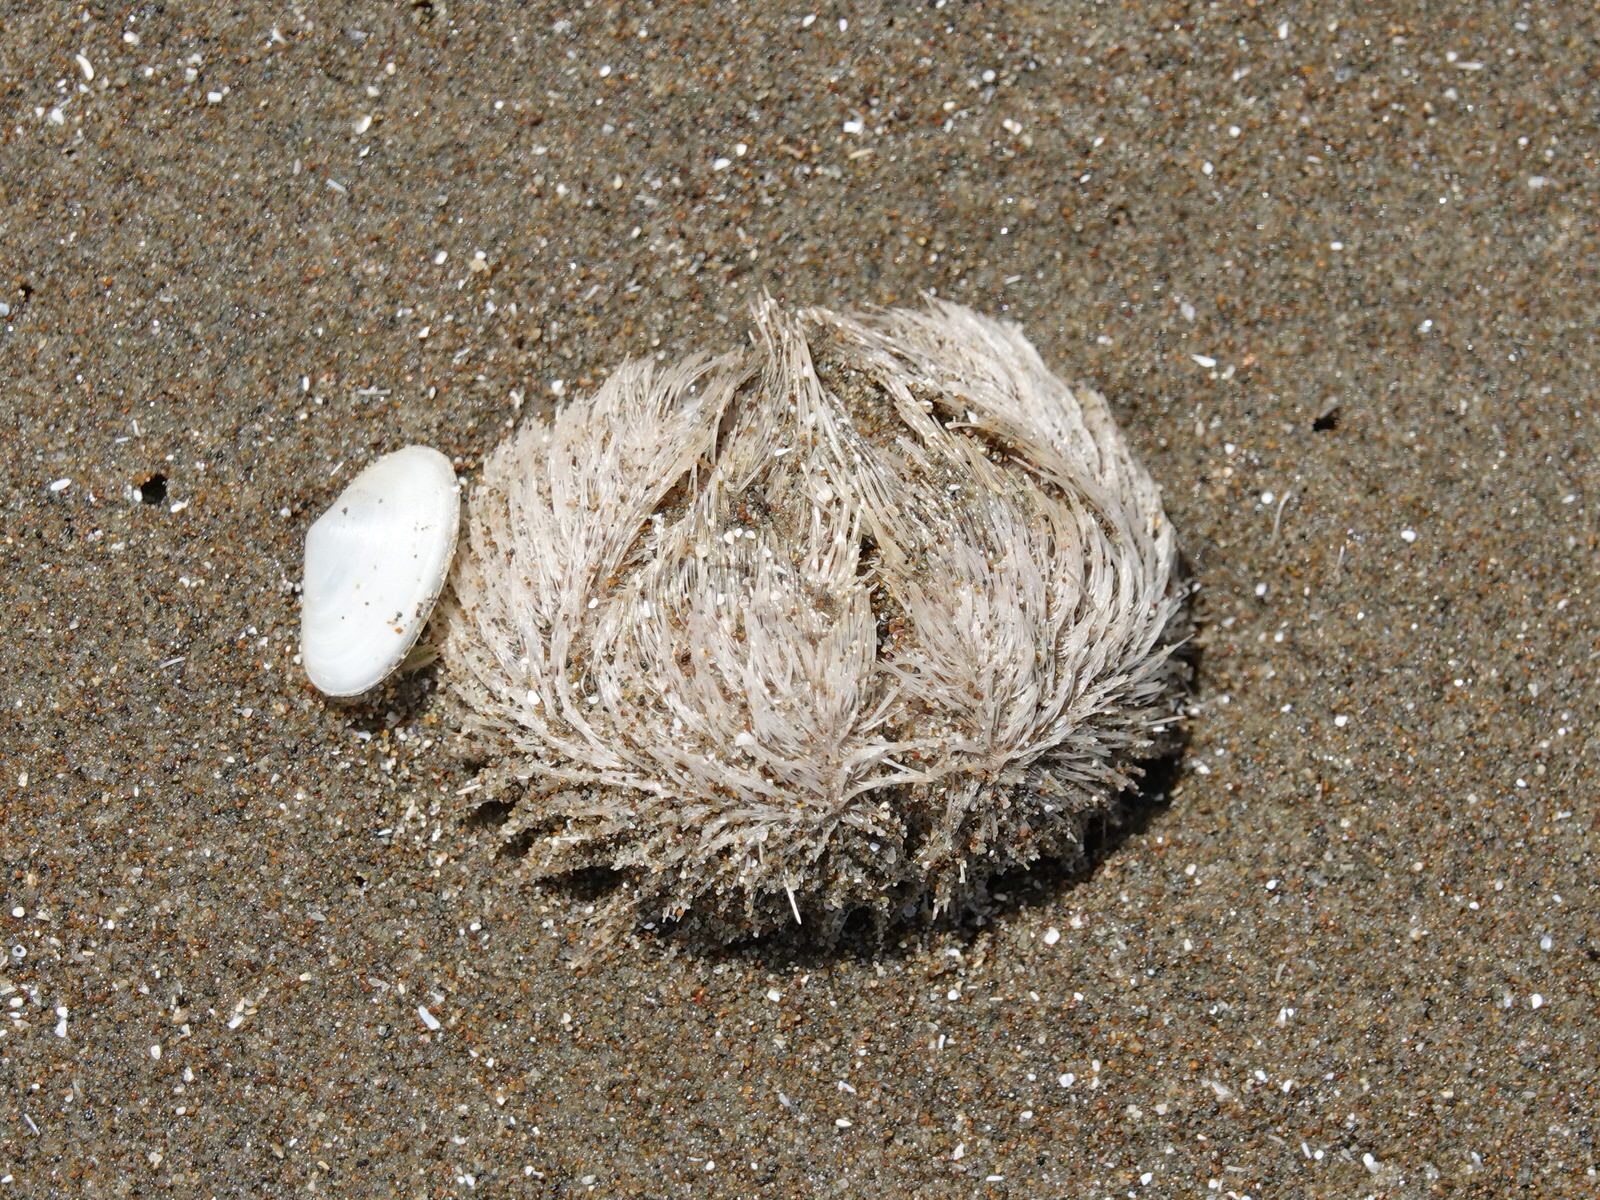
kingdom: Animalia
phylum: Echinodermata
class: Echinoidea
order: Spatangoida
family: Loveniidae
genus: Echinocardium
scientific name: Echinocardium cordatum
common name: Heart-urchin
